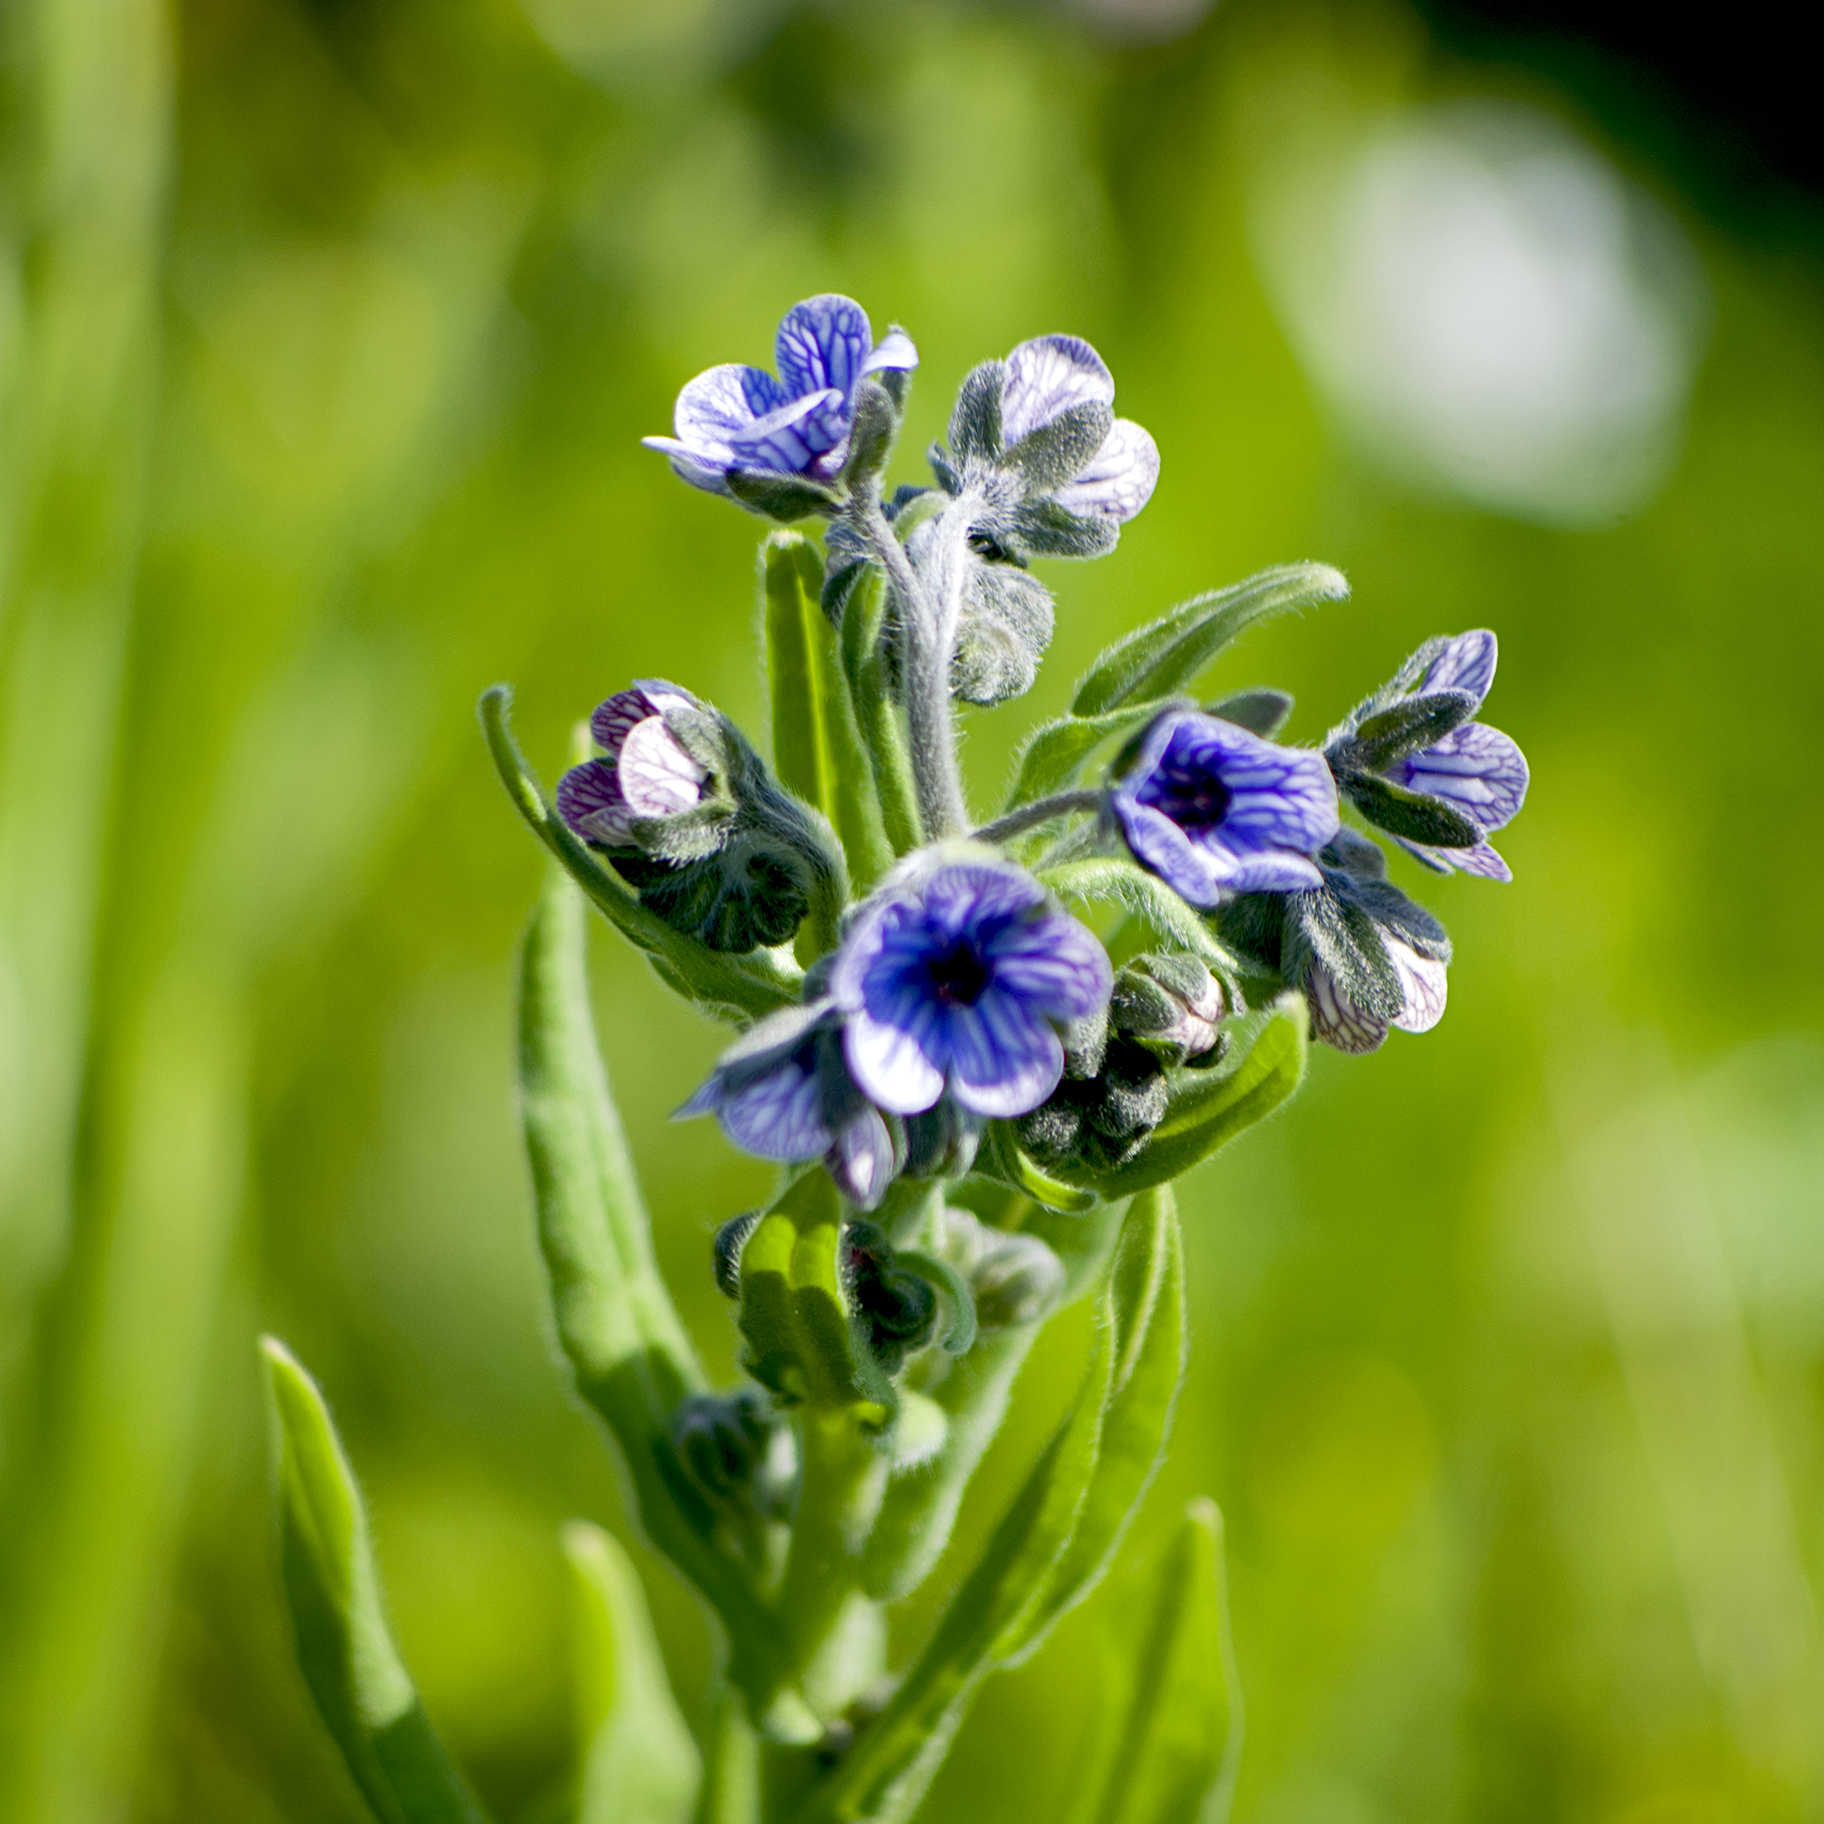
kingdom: Plantae
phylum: Tracheophyta
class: Magnoliopsida
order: Boraginales
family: Boraginaceae
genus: Cynoglossum
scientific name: Cynoglossum creticum
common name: Blue hound's tongue
